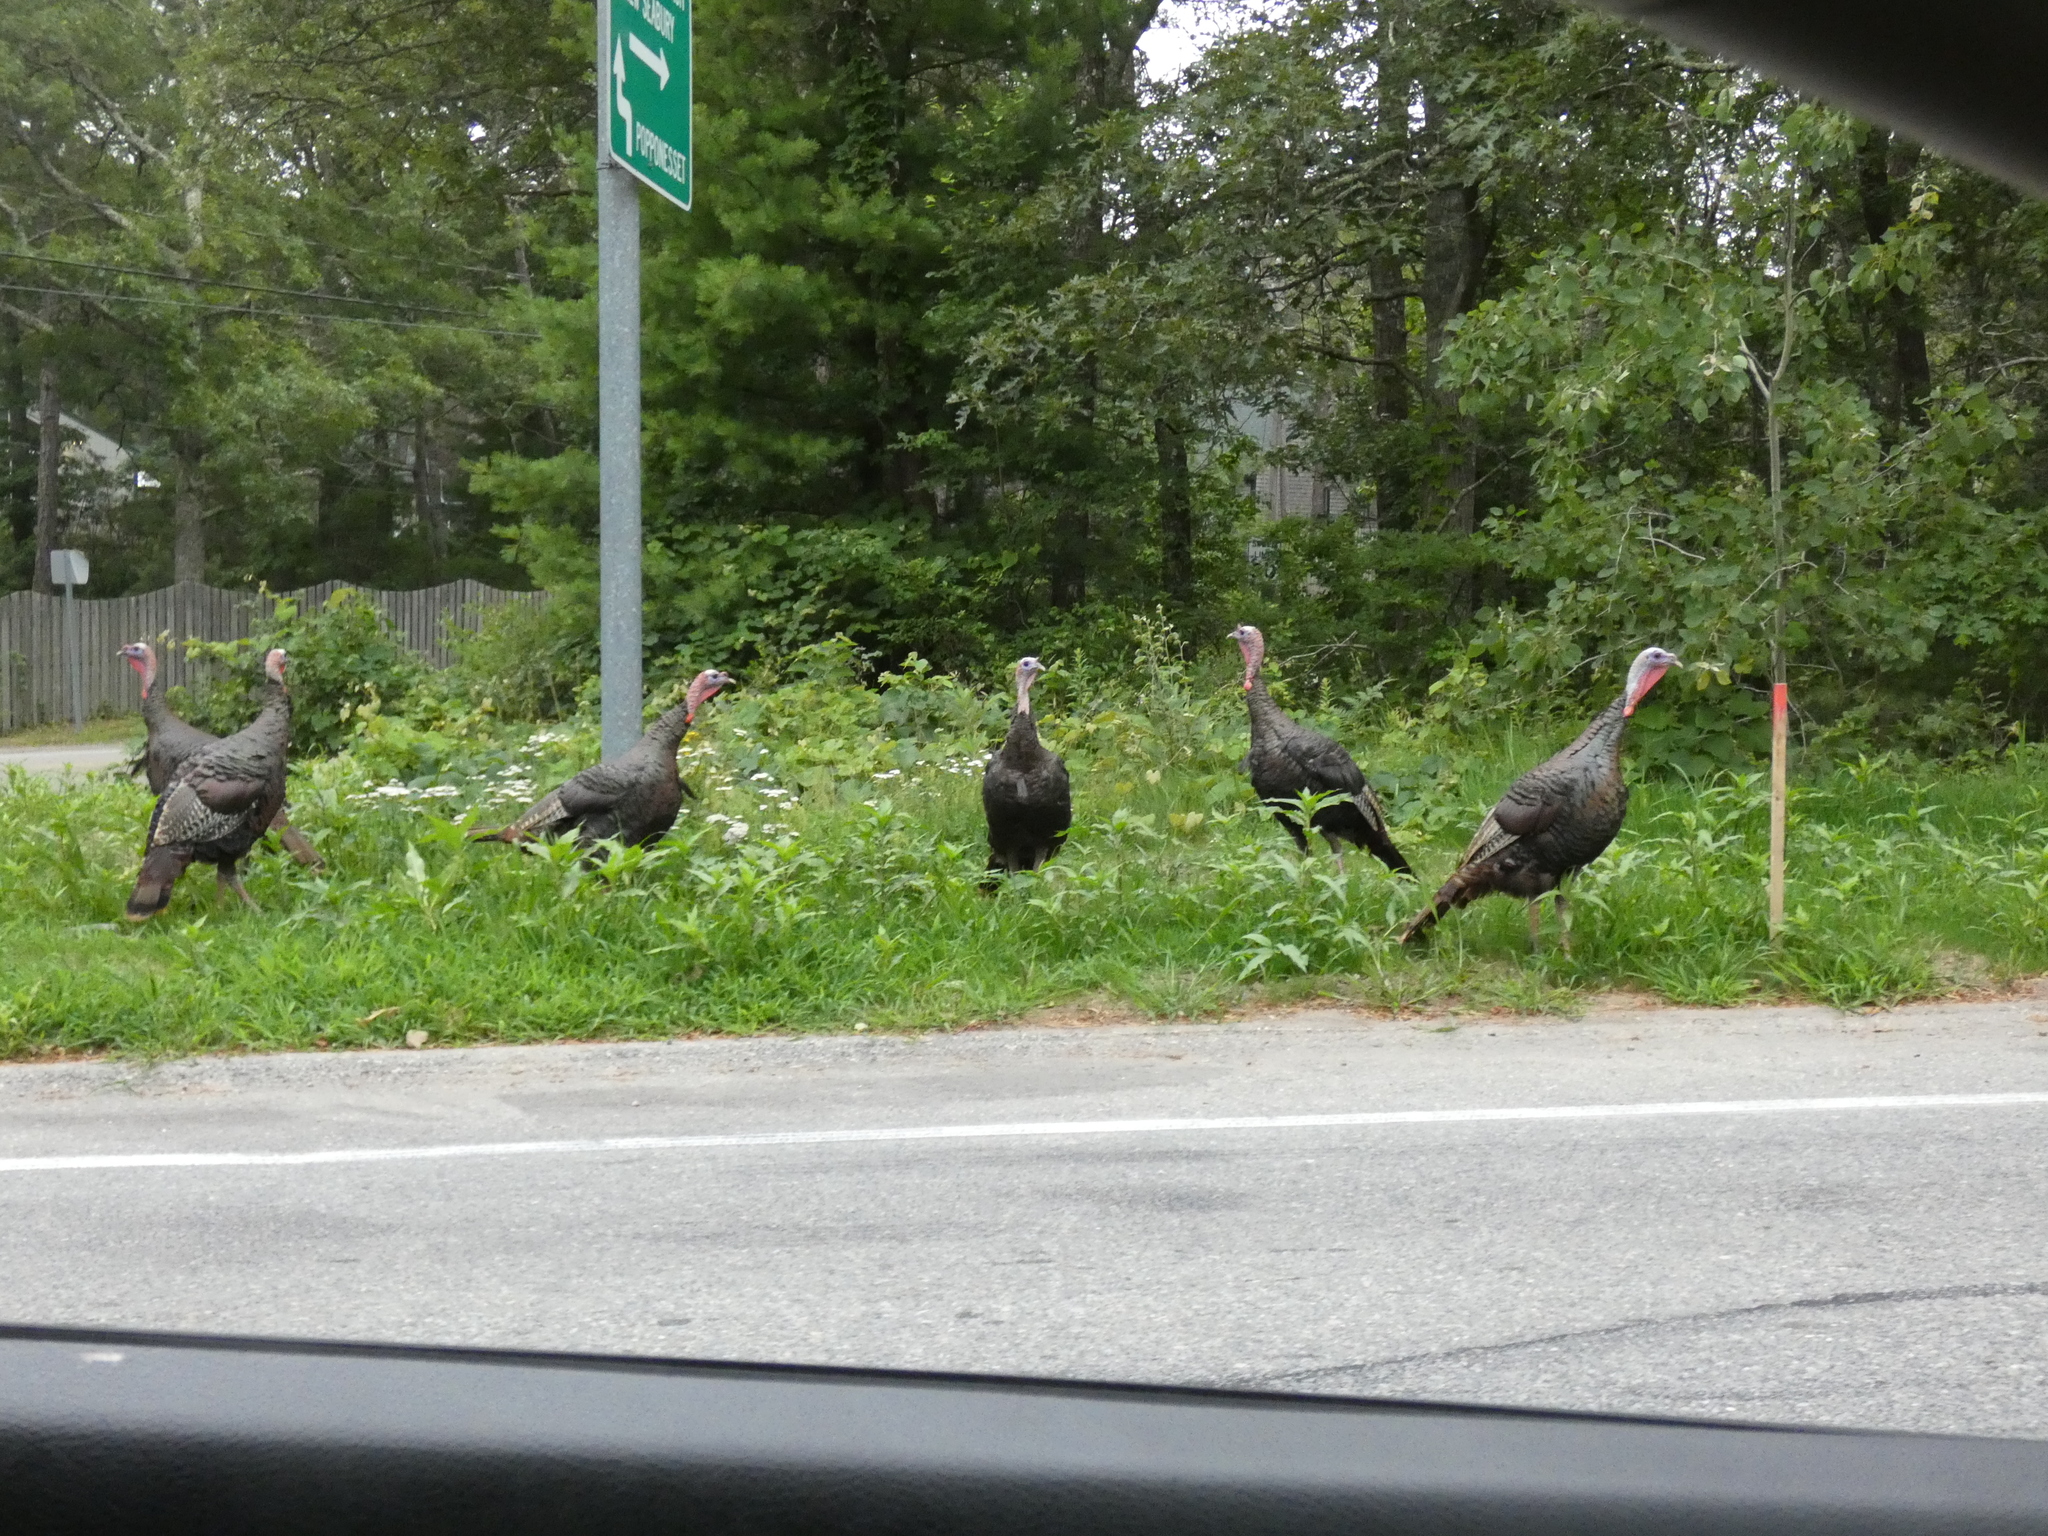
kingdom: Animalia
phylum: Chordata
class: Aves
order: Galliformes
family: Phasianidae
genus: Meleagris
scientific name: Meleagris gallopavo
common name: Wild turkey
